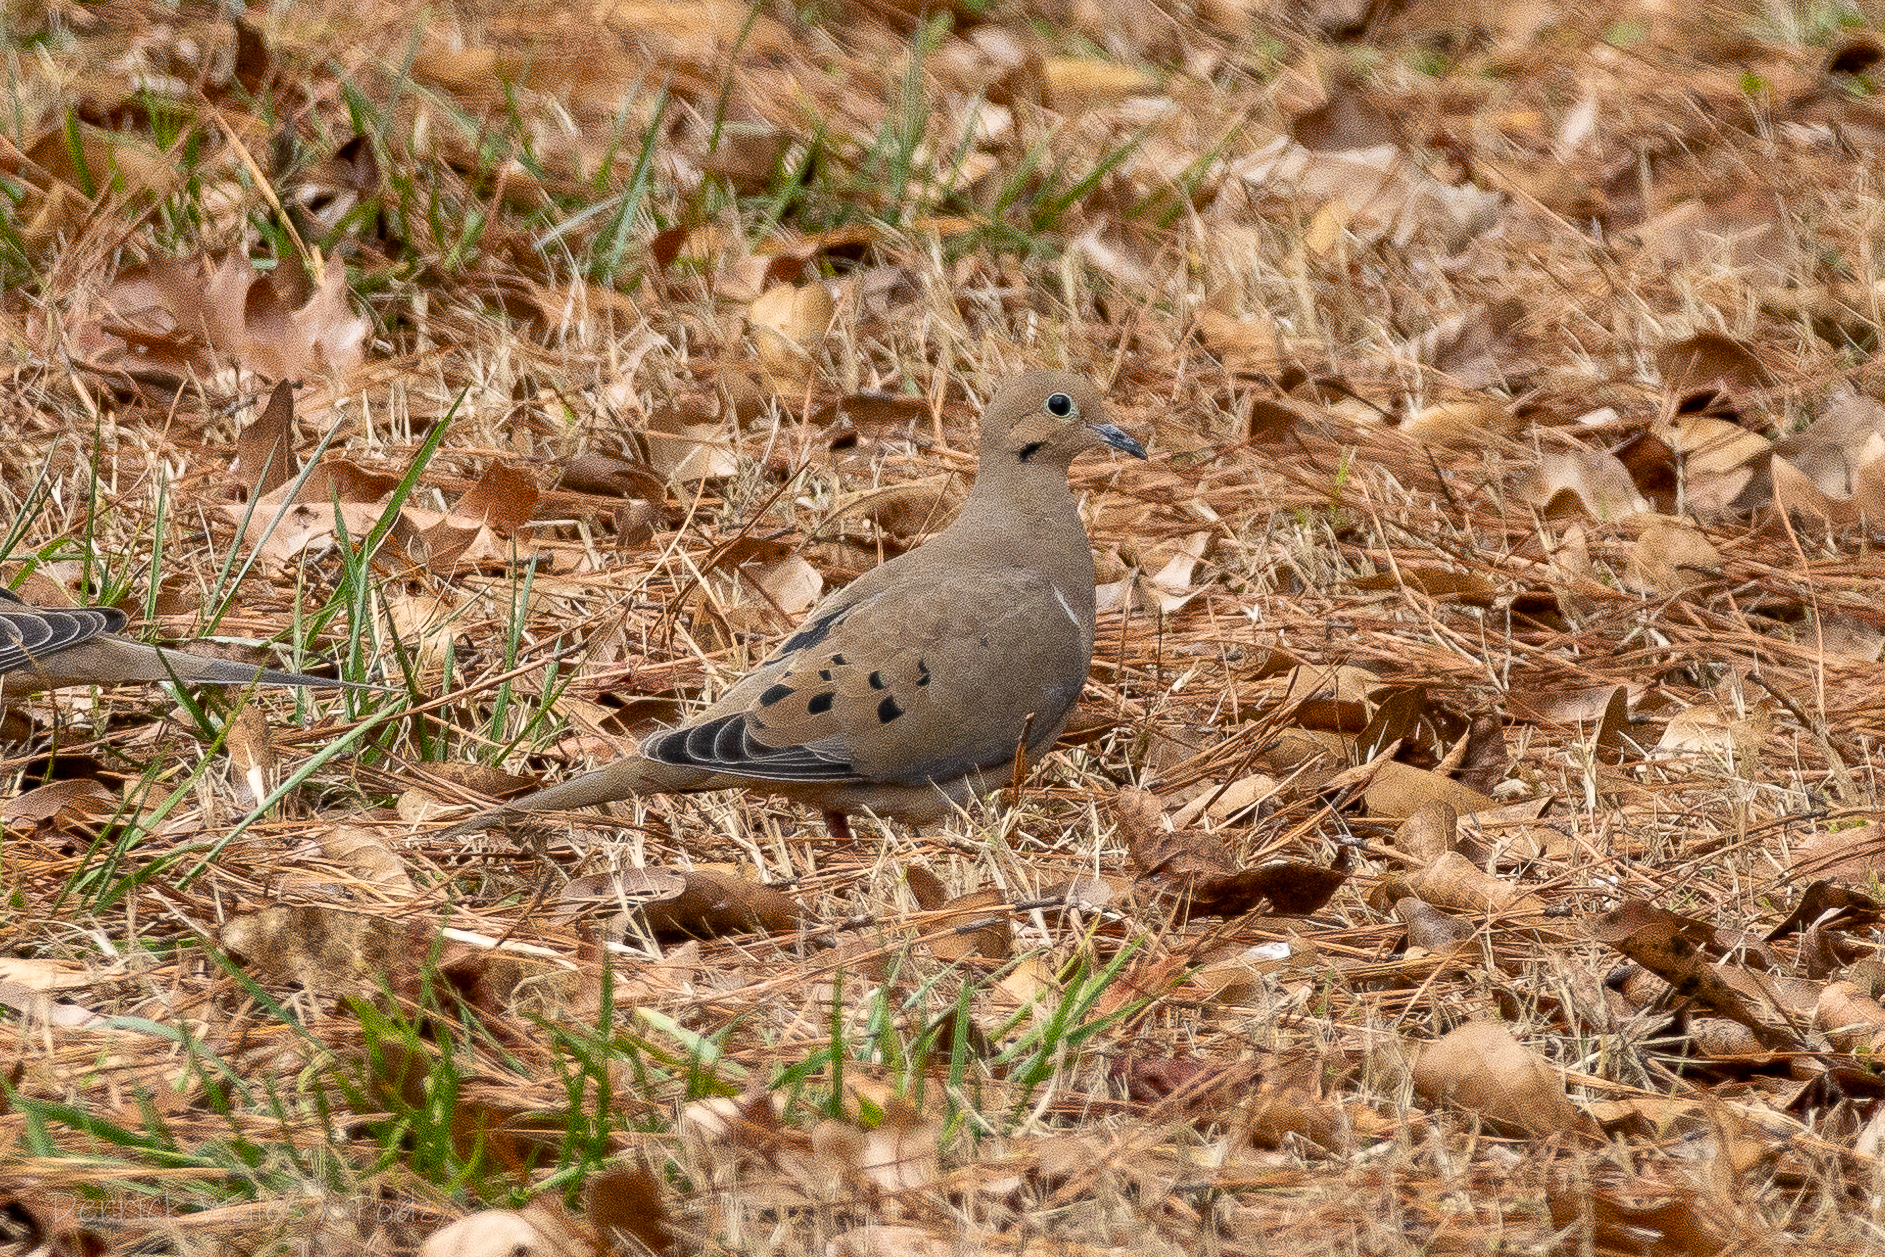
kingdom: Animalia
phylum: Chordata
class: Aves
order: Columbiformes
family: Columbidae
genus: Zenaida
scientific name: Zenaida macroura
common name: Mourning dove
